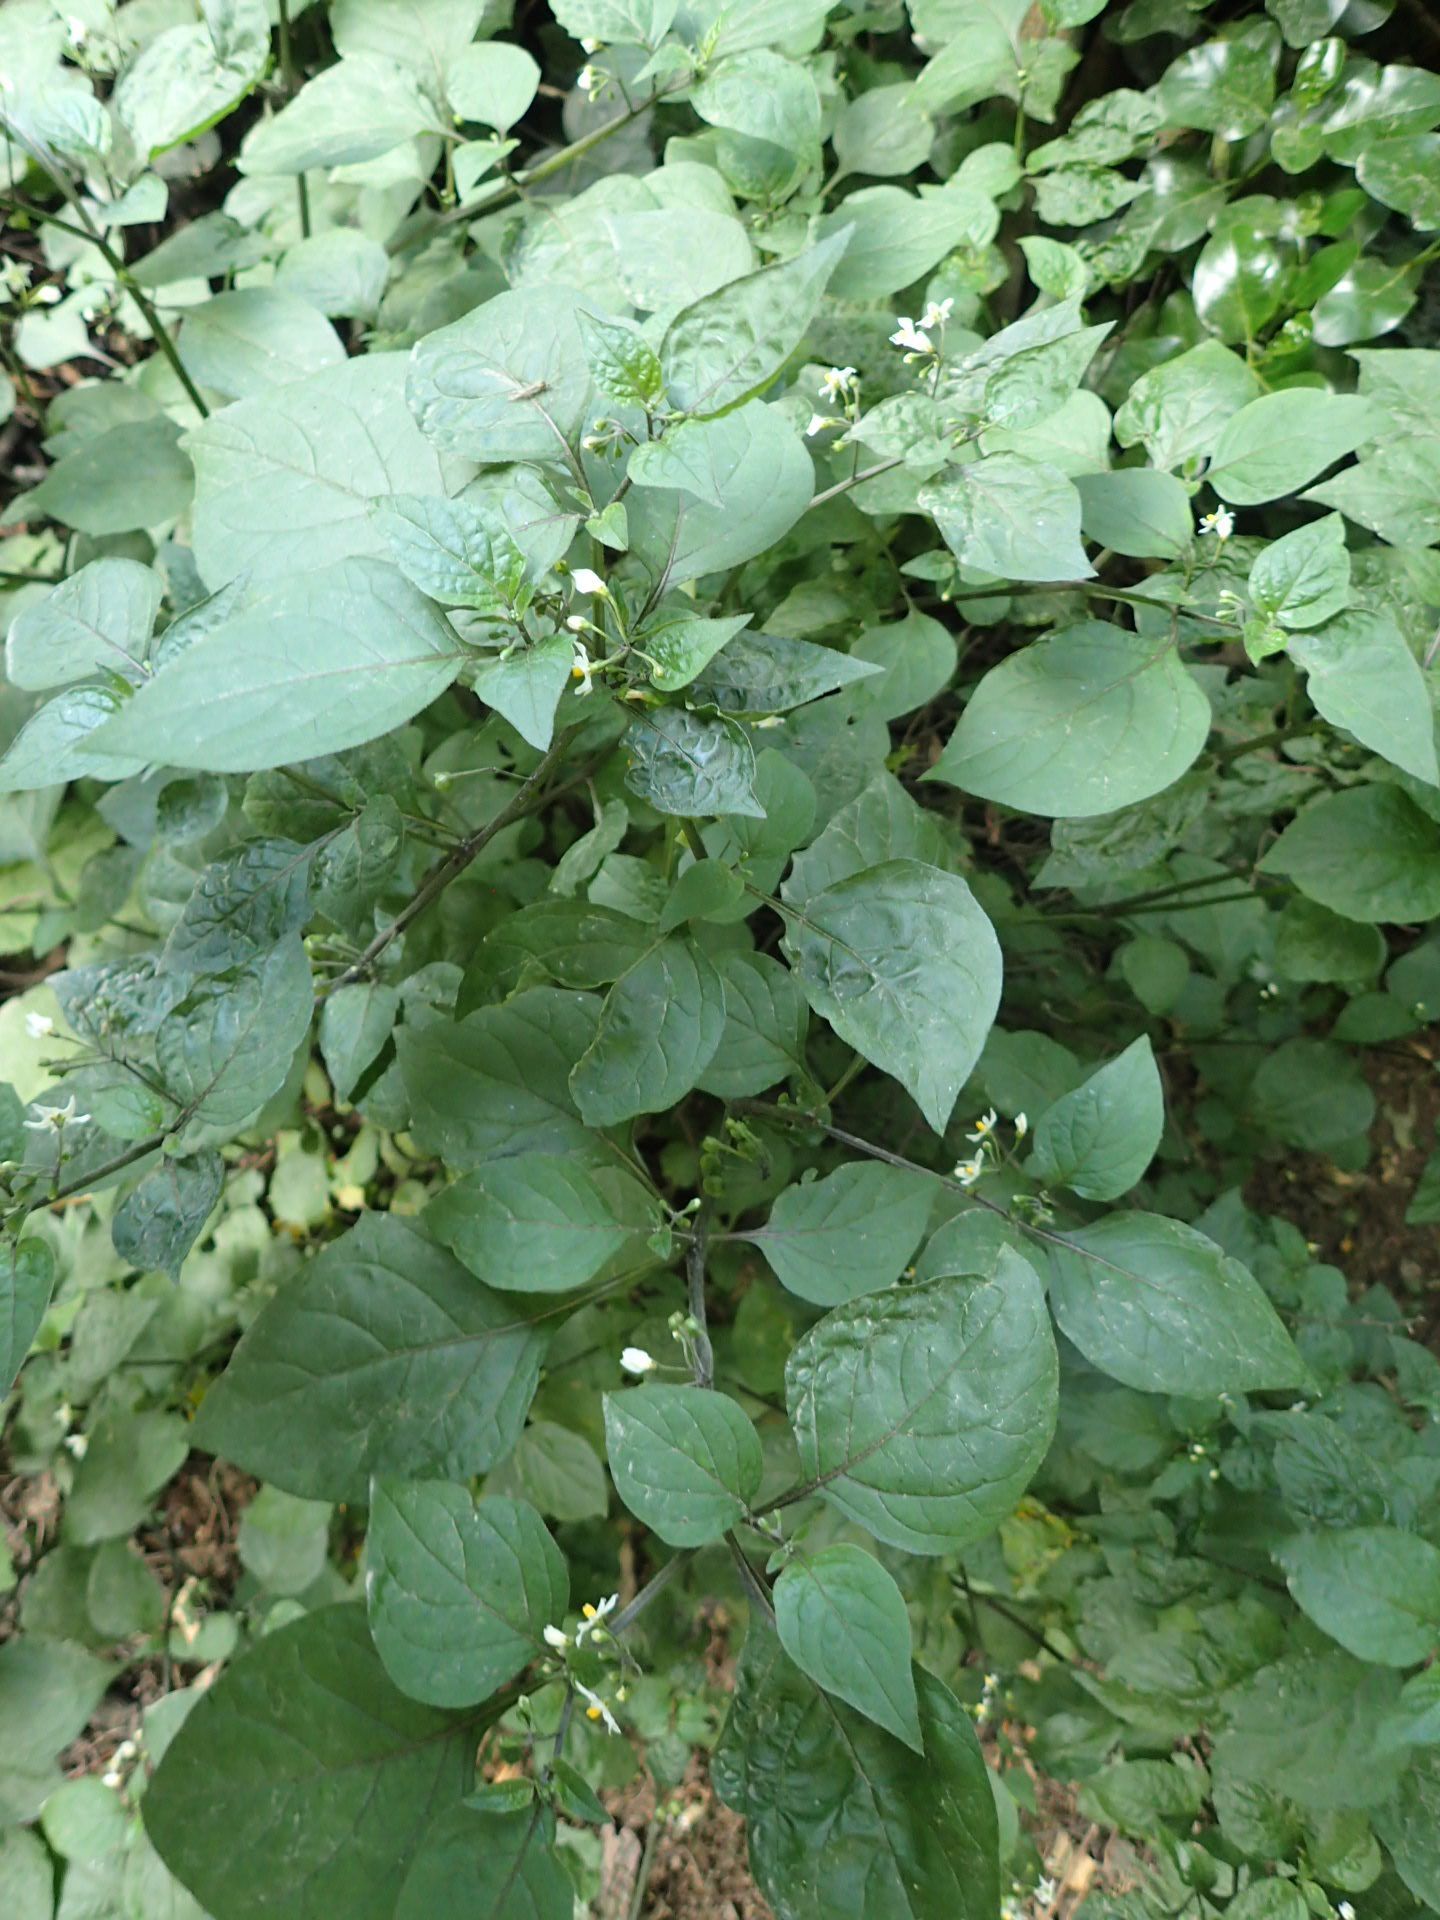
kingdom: Plantae
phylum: Tracheophyta
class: Magnoliopsida
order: Solanales
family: Solanaceae
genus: Solanum
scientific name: Solanum nigrum
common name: Black nightshade
